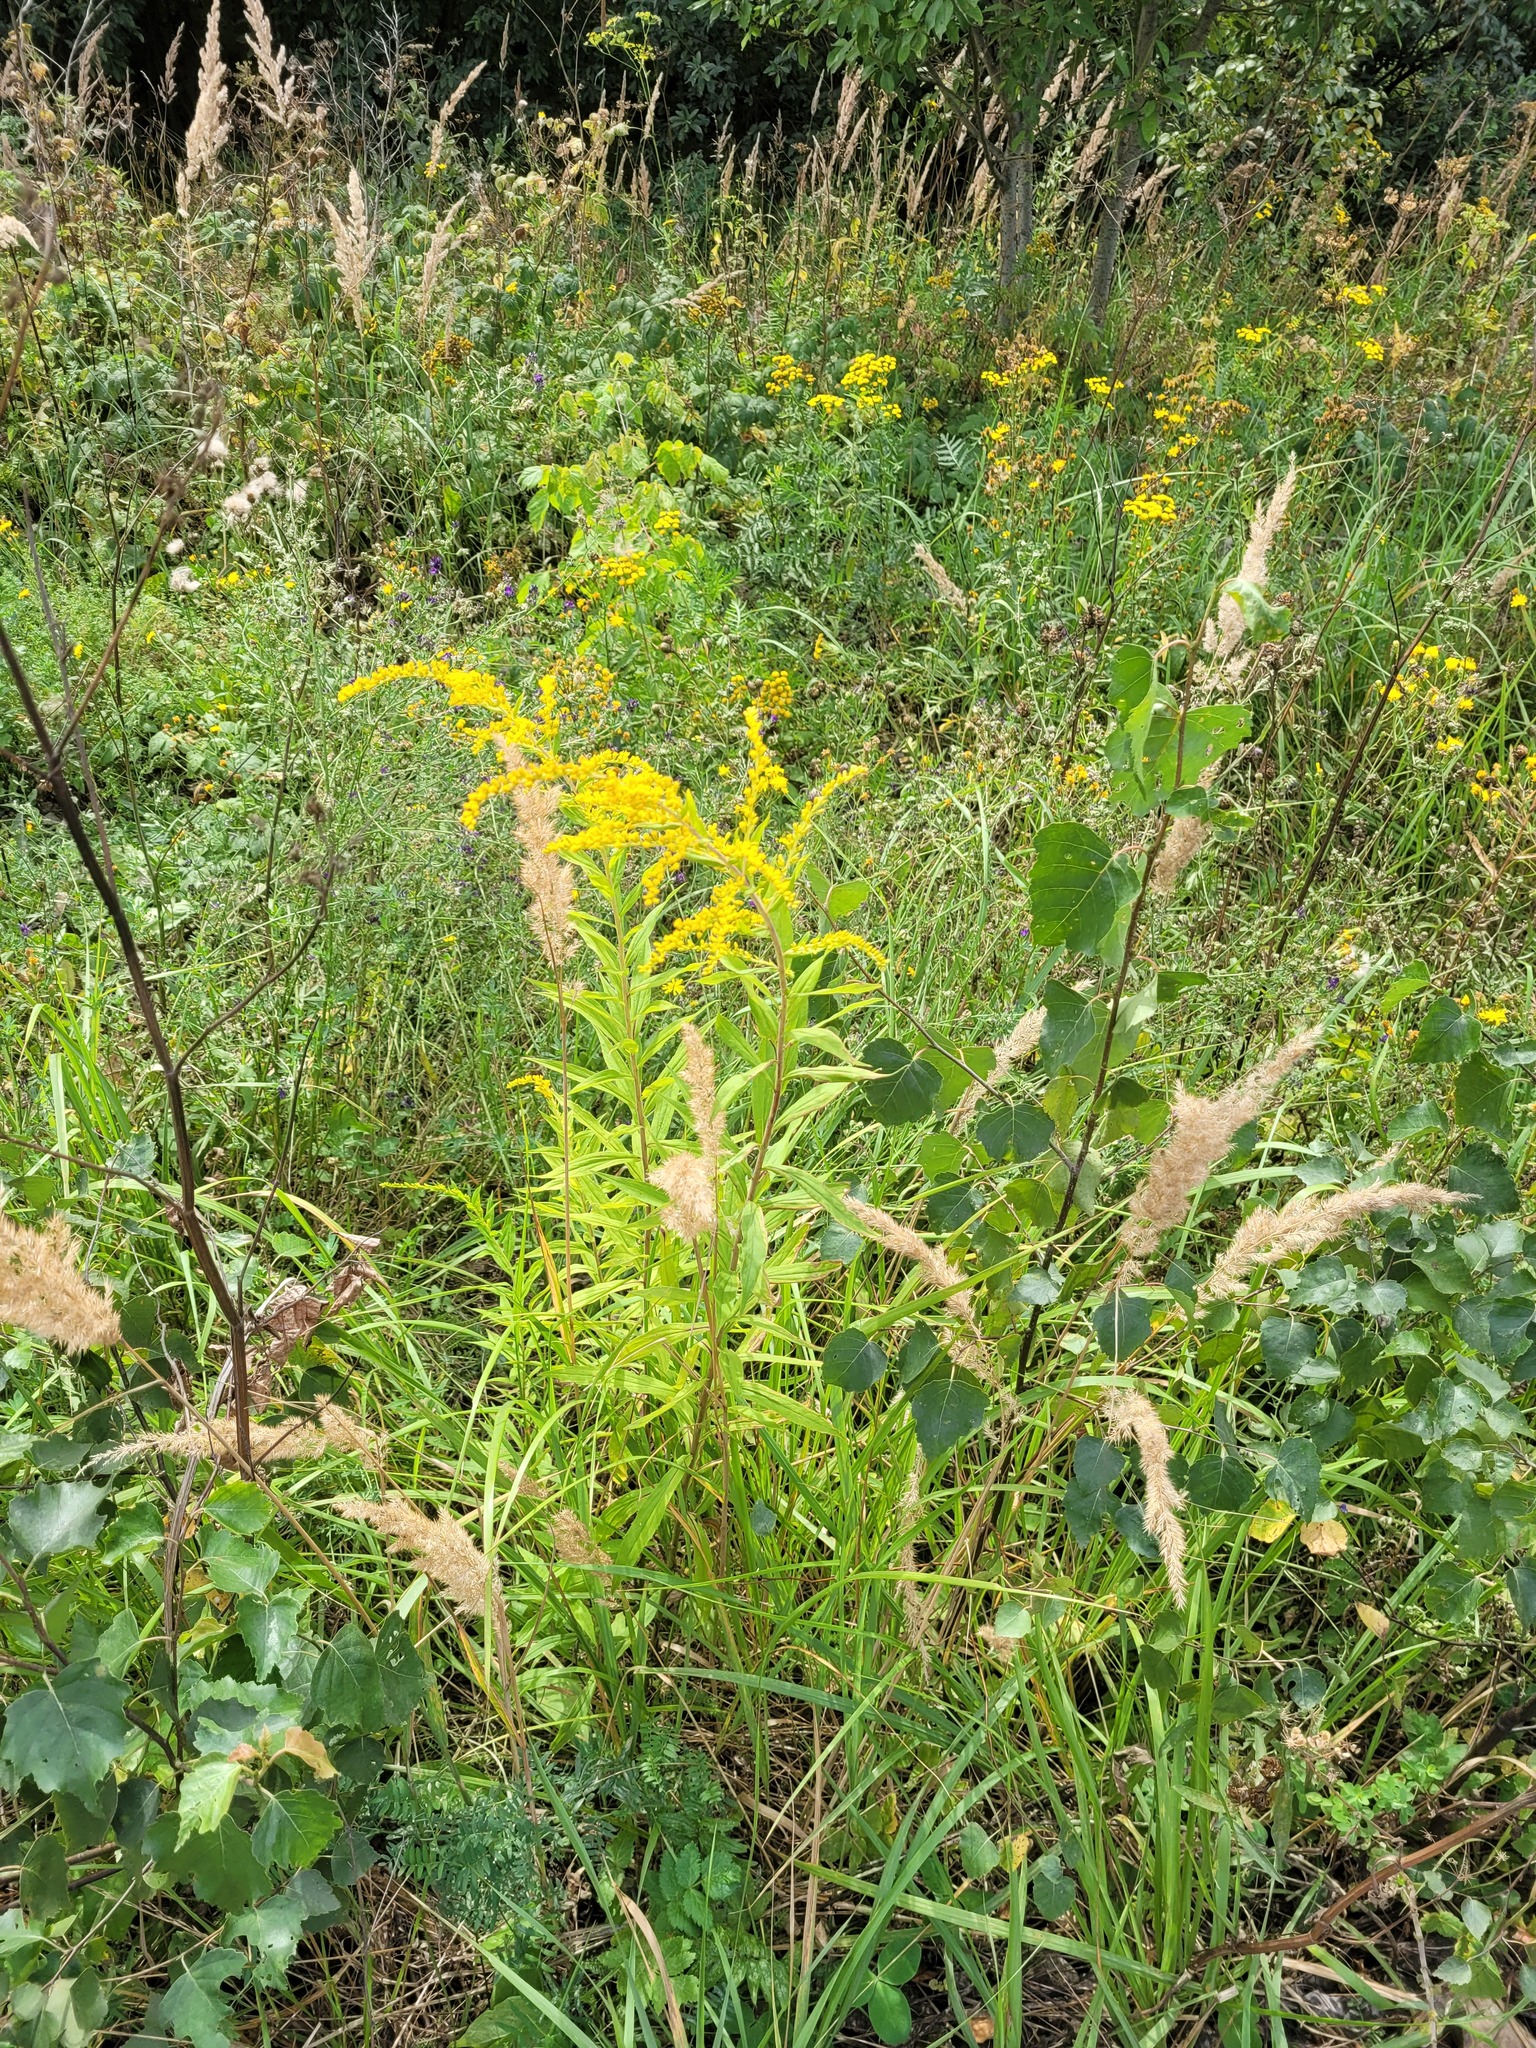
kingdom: Plantae
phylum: Tracheophyta
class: Magnoliopsida
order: Asterales
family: Asteraceae
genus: Solidago
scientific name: Solidago canadensis
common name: Canada goldenrod
